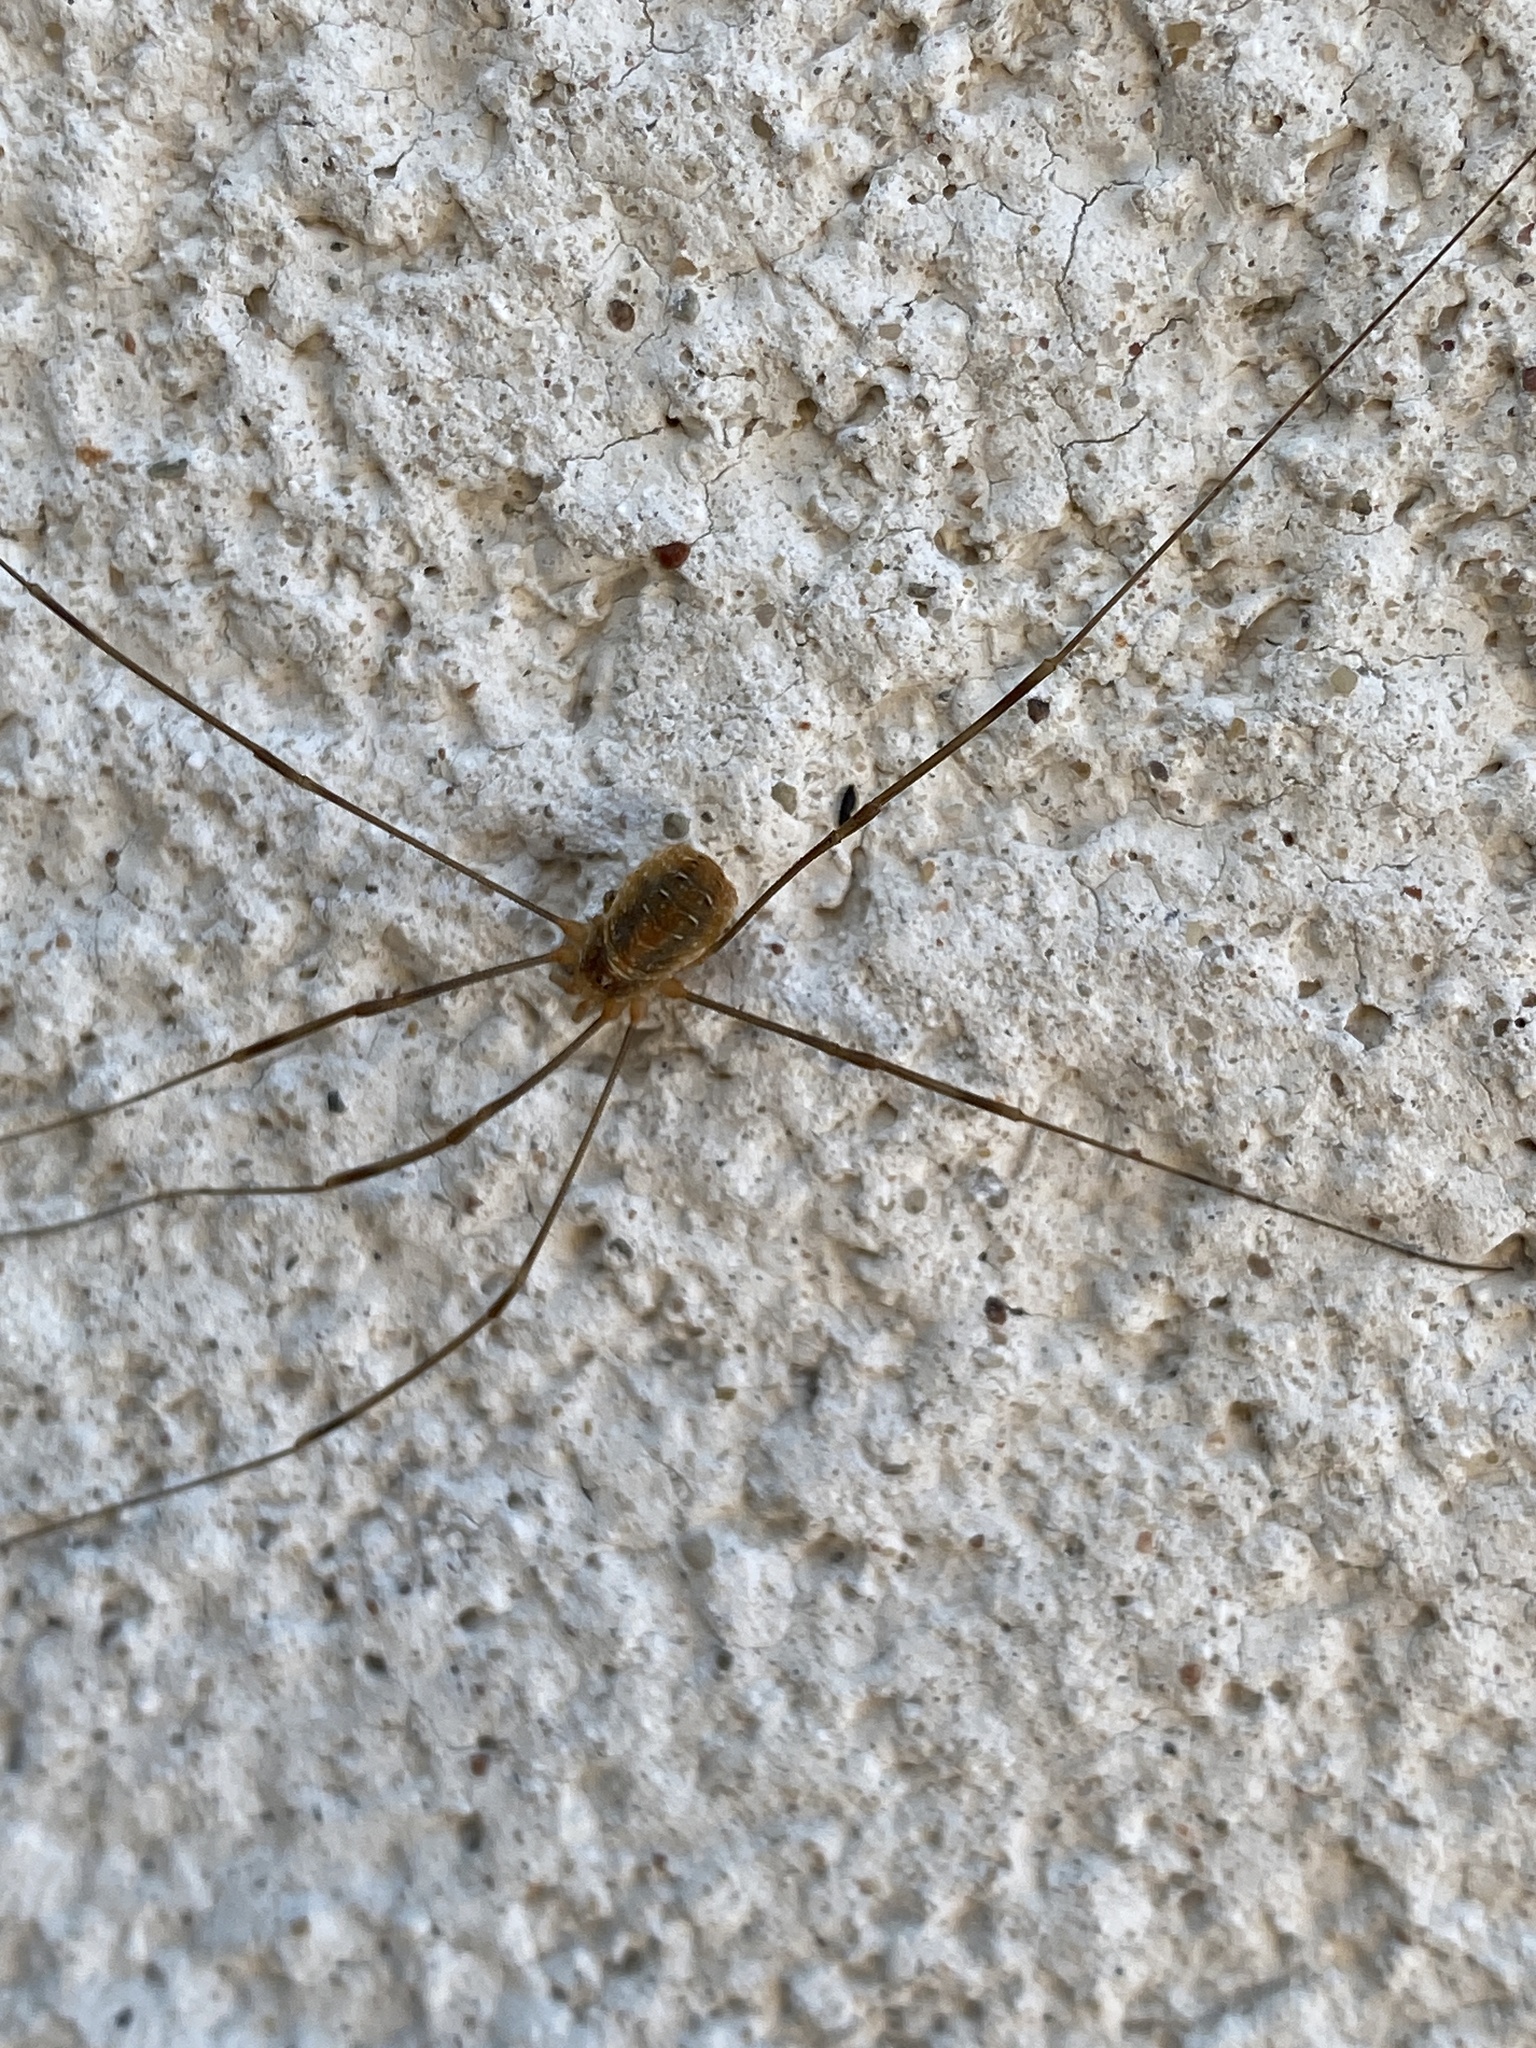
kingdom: Animalia
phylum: Arthropoda
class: Arachnida
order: Opiliones
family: Phalangiidae
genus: Opilio
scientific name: Opilio canestrinii
